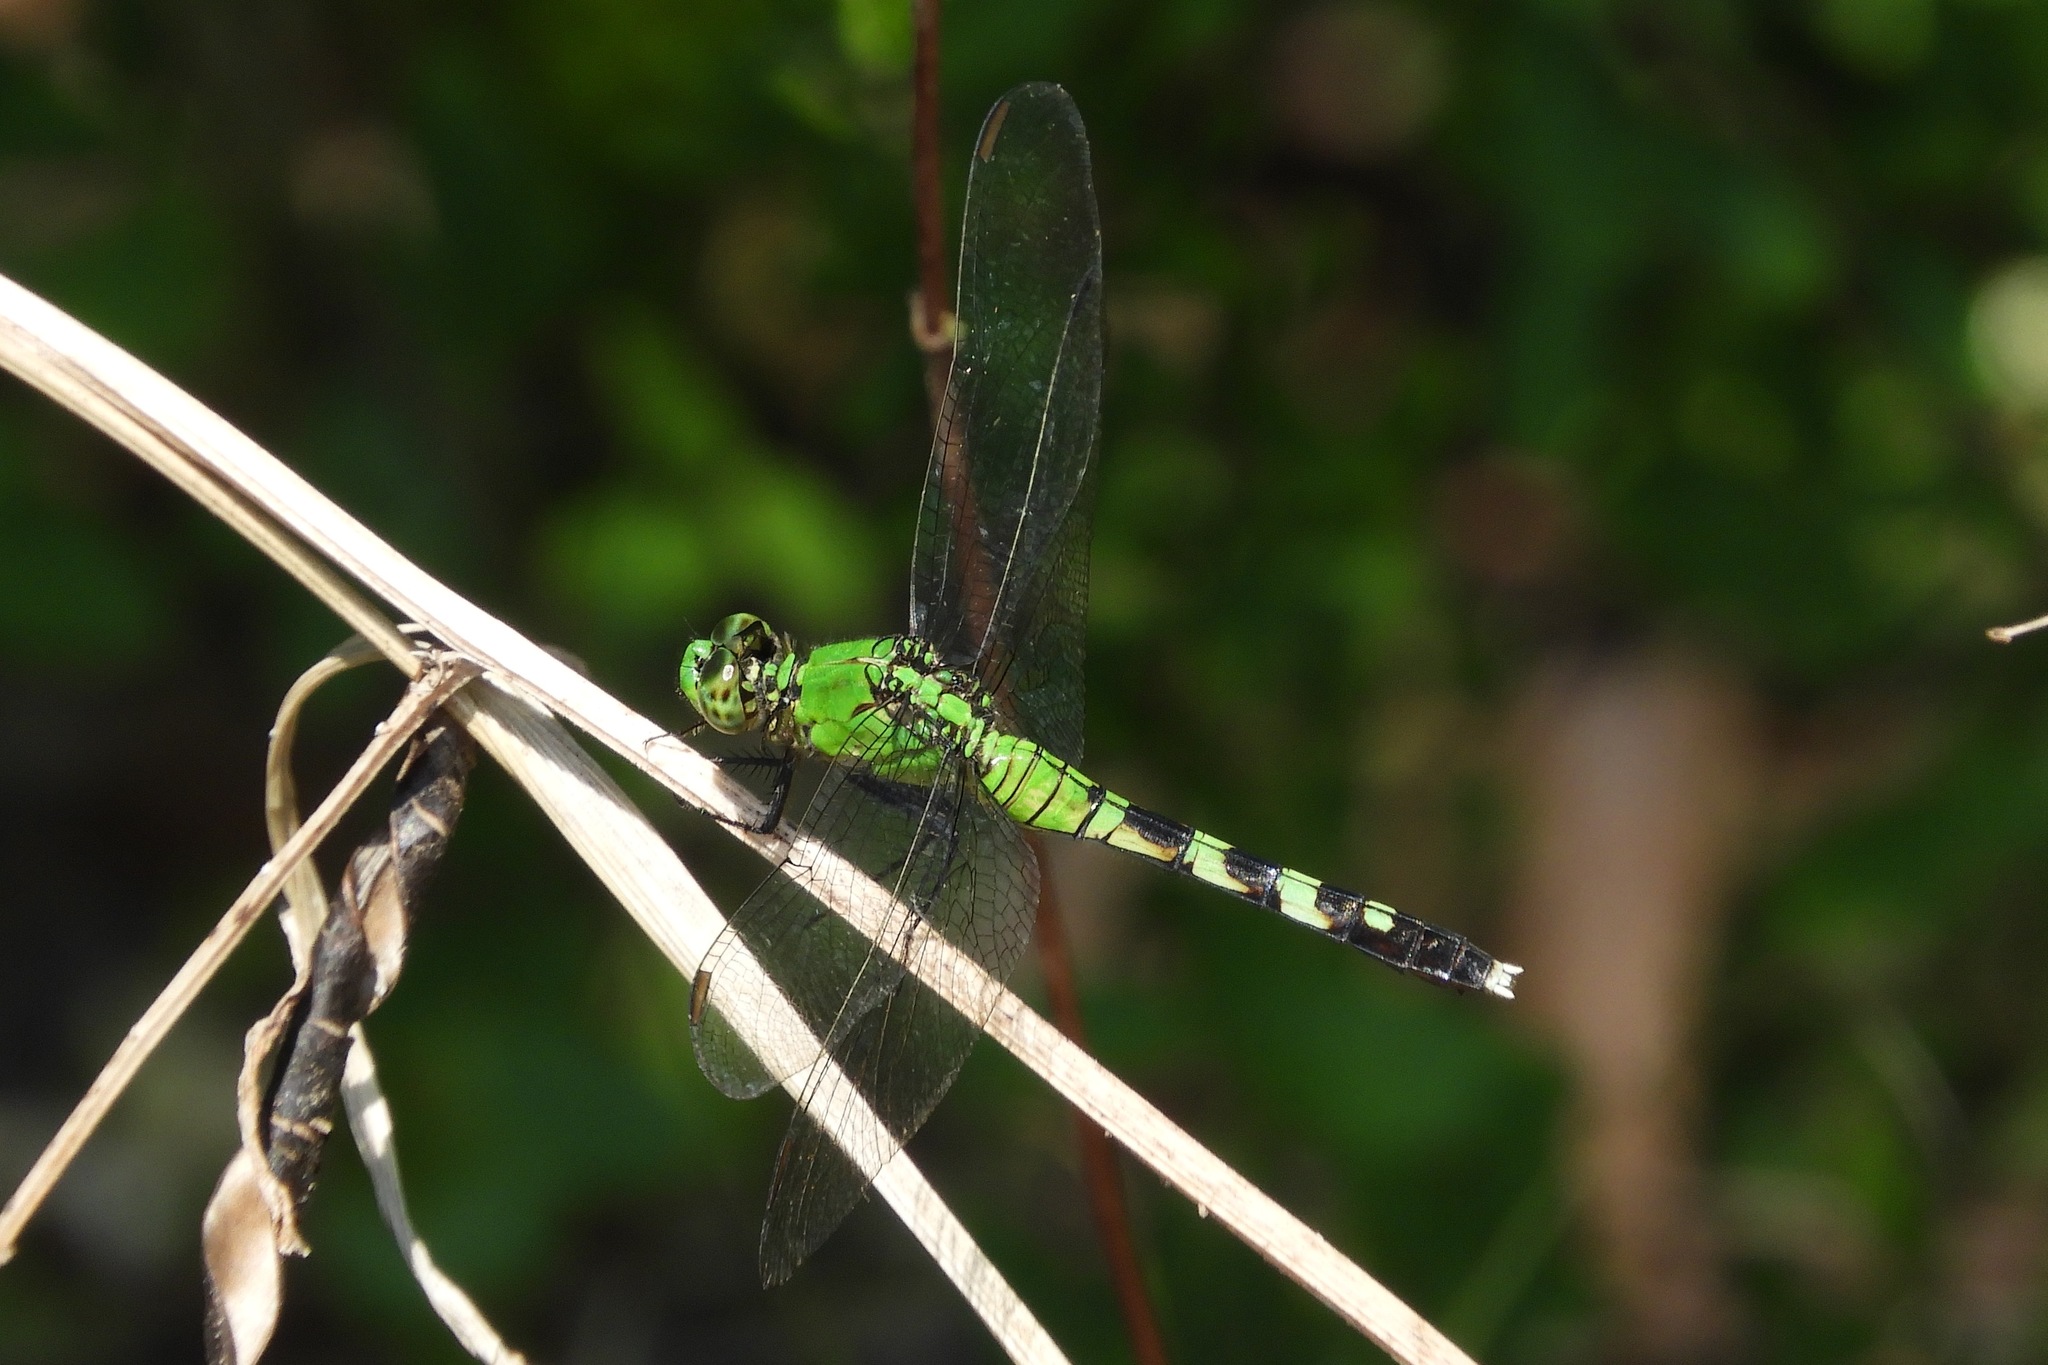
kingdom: Animalia
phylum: Arthropoda
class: Insecta
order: Odonata
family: Libellulidae
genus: Erythemis
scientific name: Erythemis simplicicollis
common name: Eastern pondhawk
